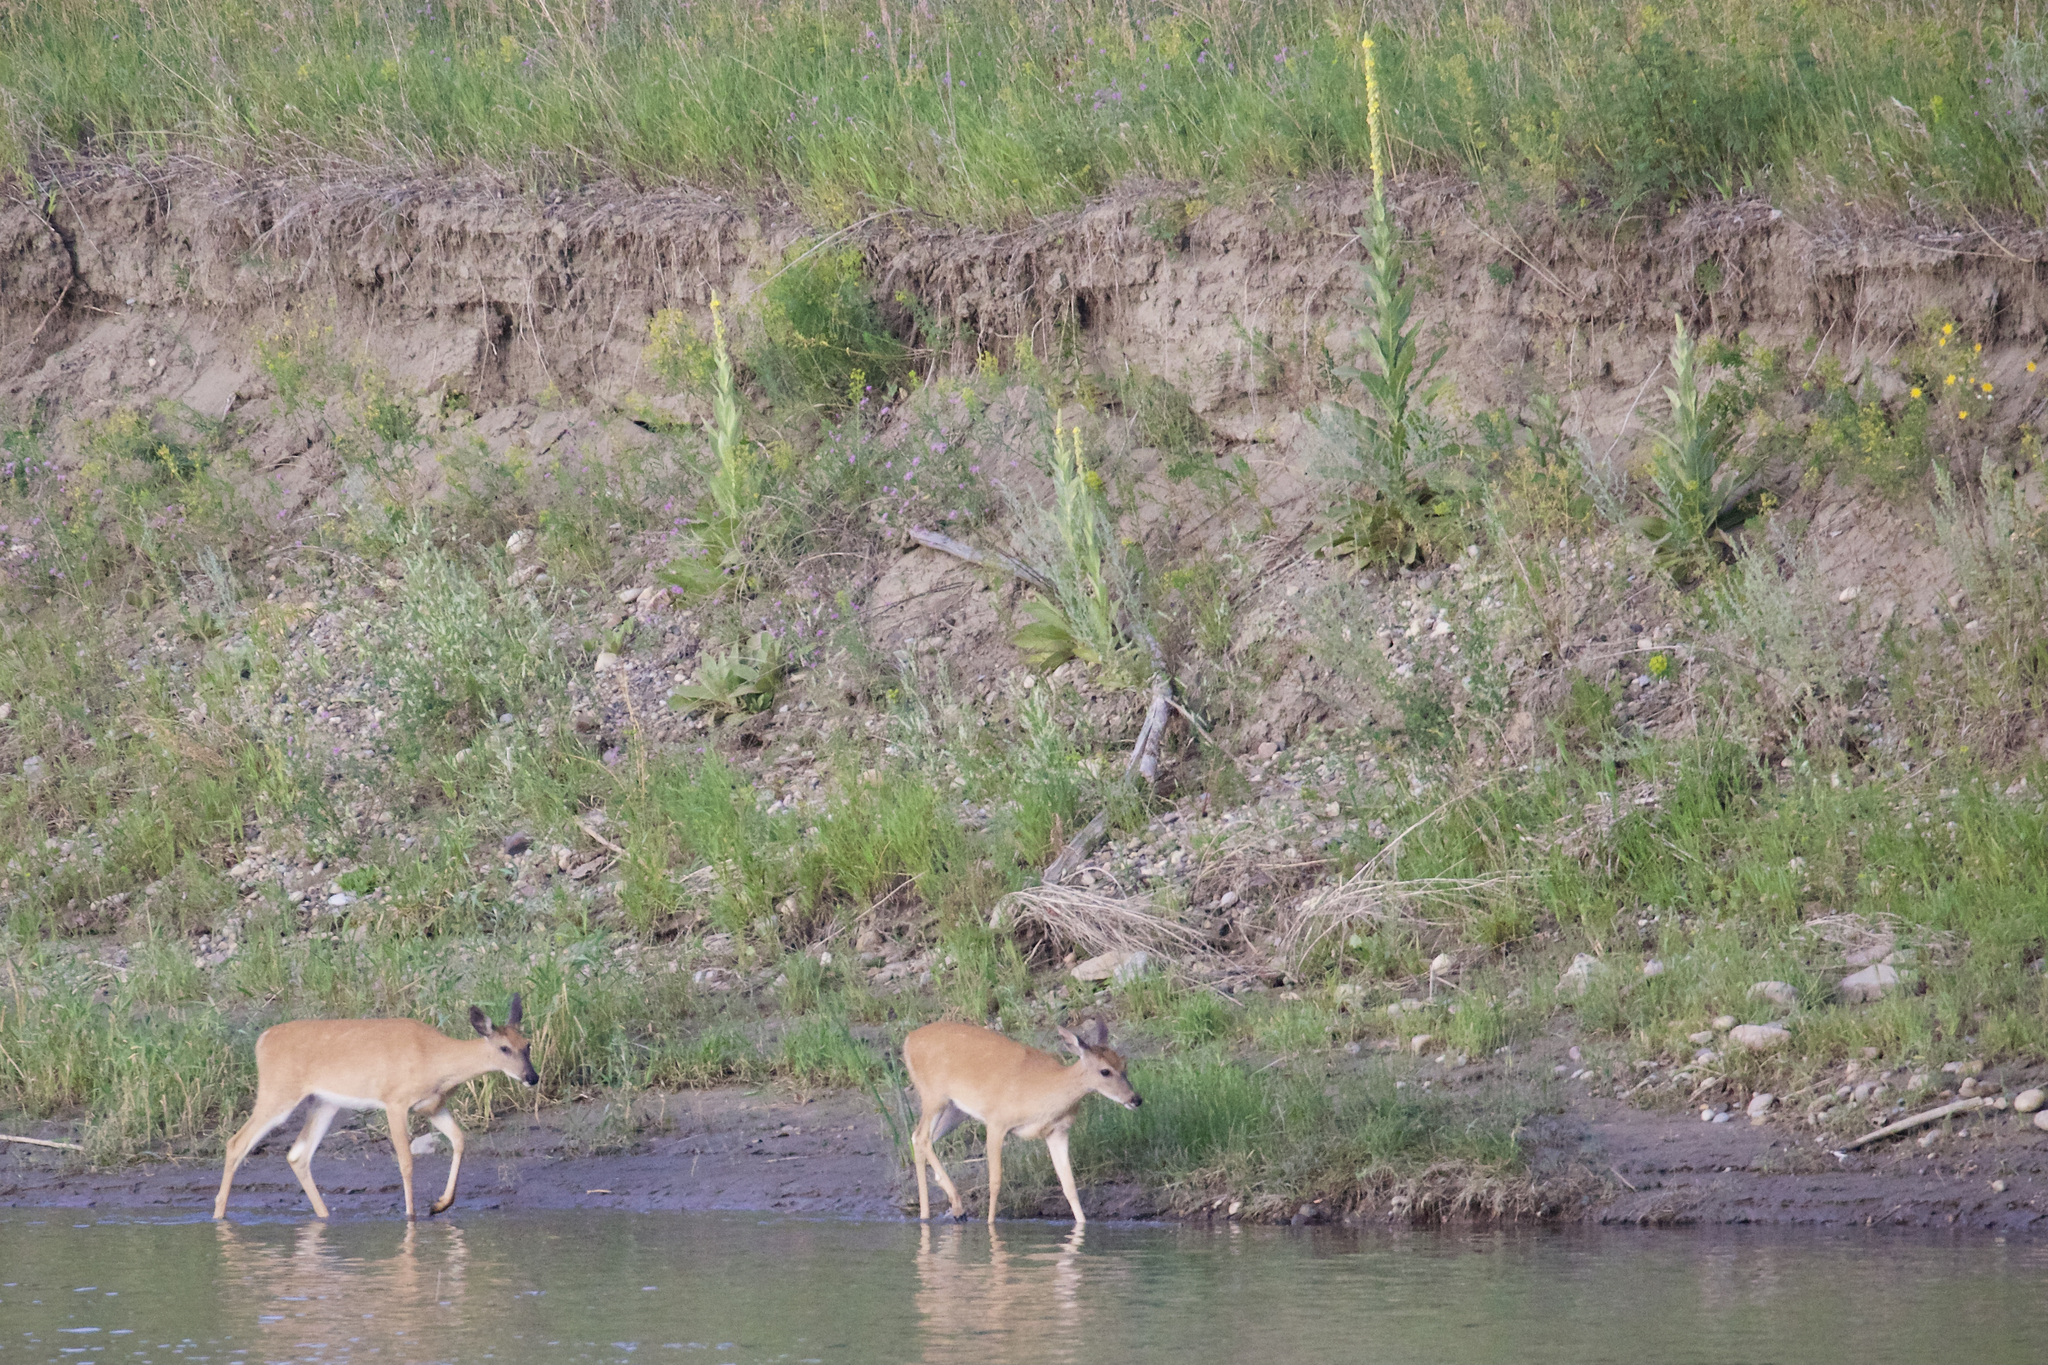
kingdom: Animalia
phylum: Chordata
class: Mammalia
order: Artiodactyla
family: Cervidae
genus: Odocoileus
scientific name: Odocoileus virginianus
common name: White-tailed deer
